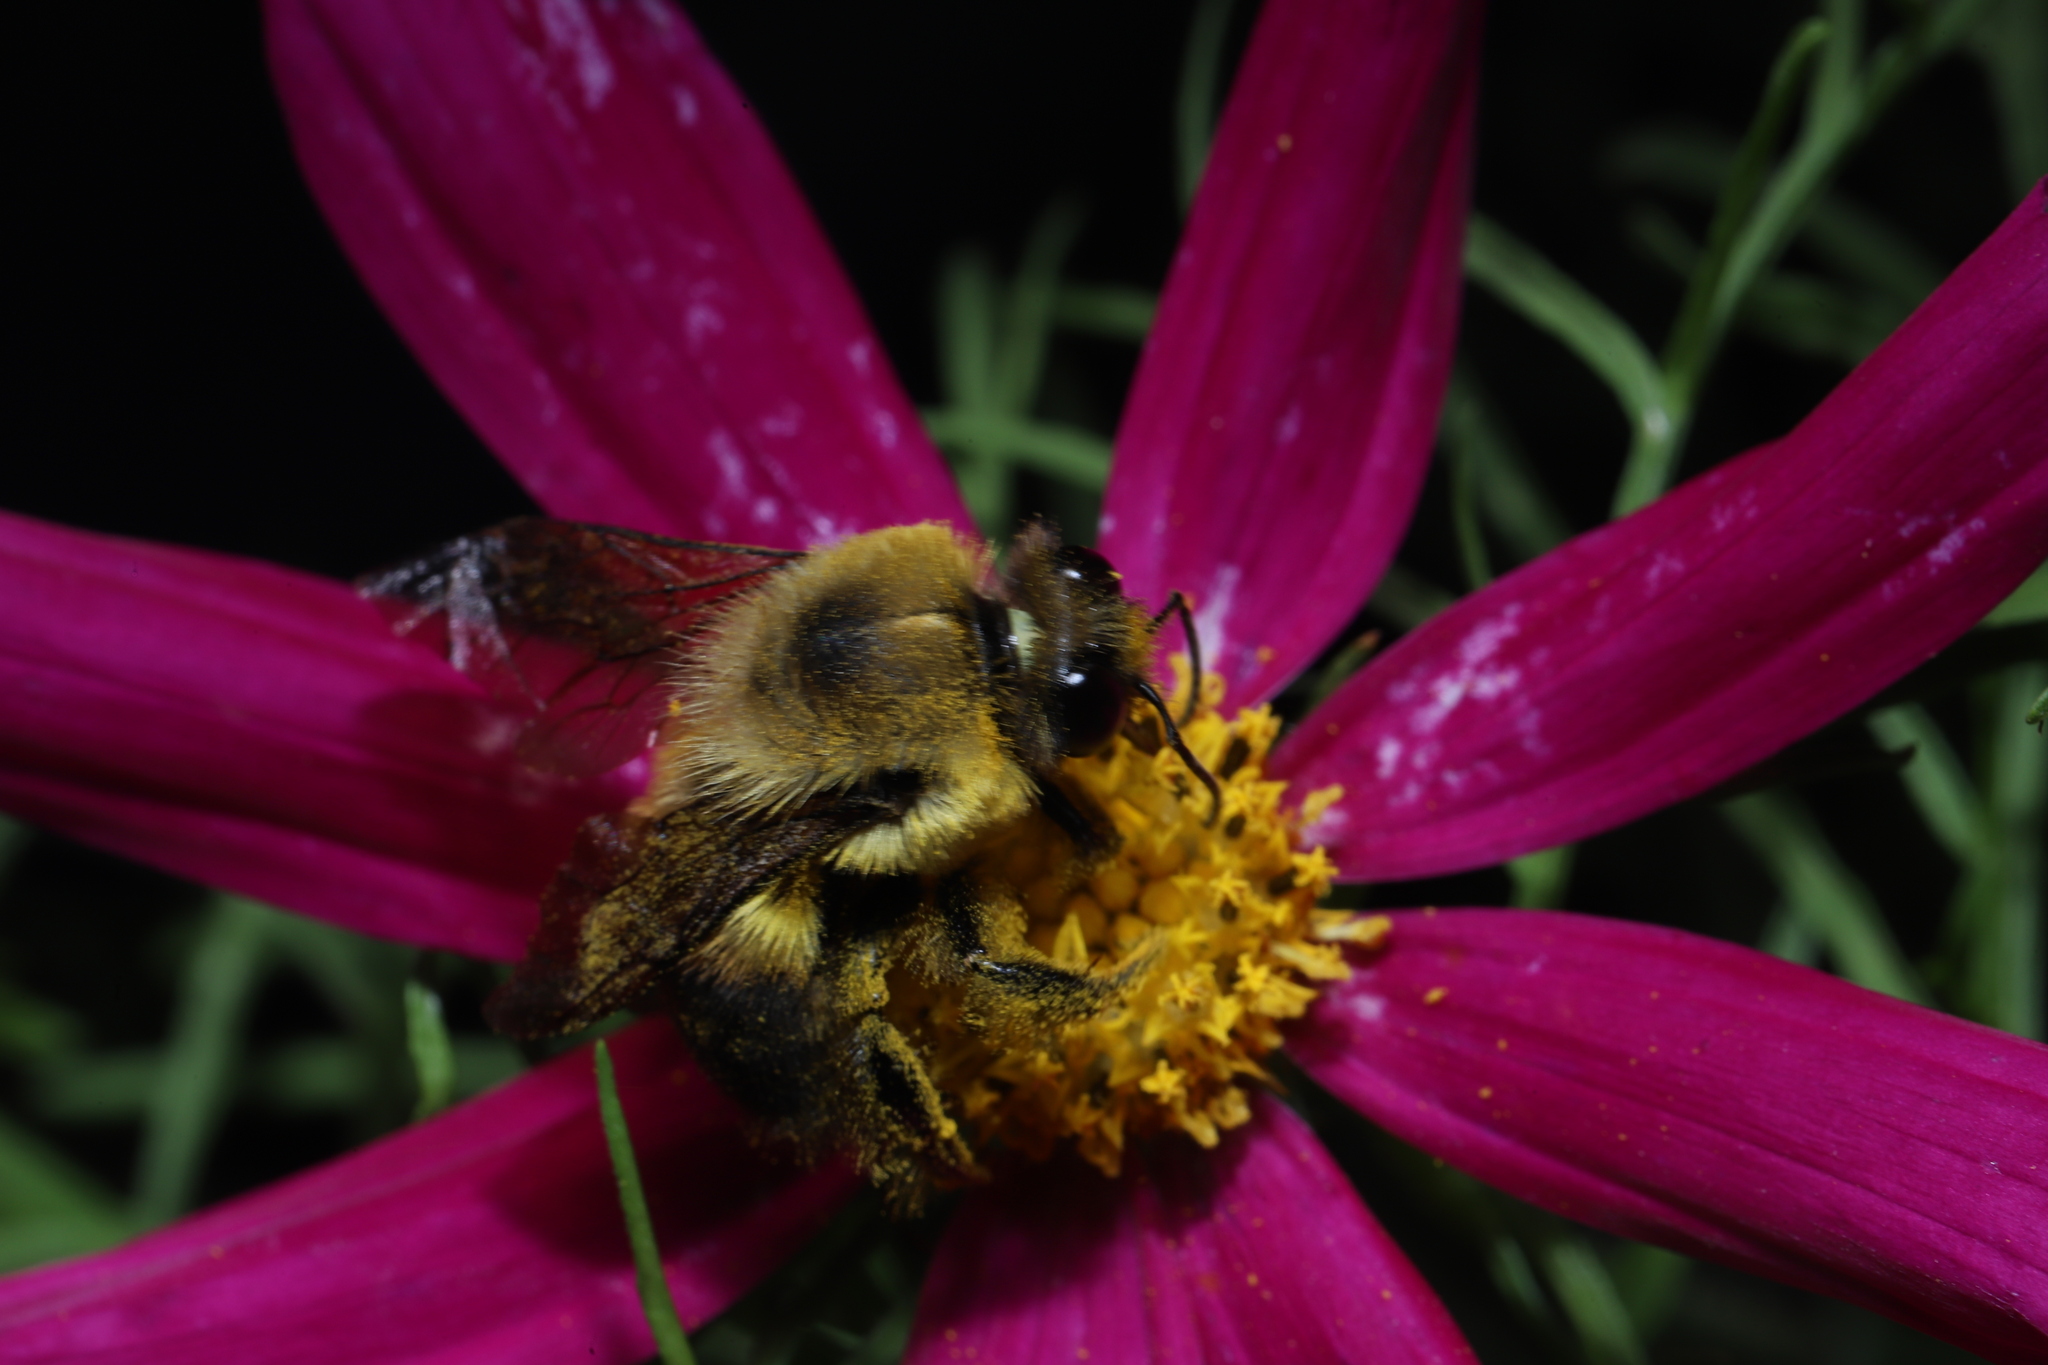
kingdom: Animalia
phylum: Arthropoda
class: Insecta
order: Hymenoptera
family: Apidae
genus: Bombus
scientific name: Bombus griseocollis
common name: Brown-belted bumble bee
